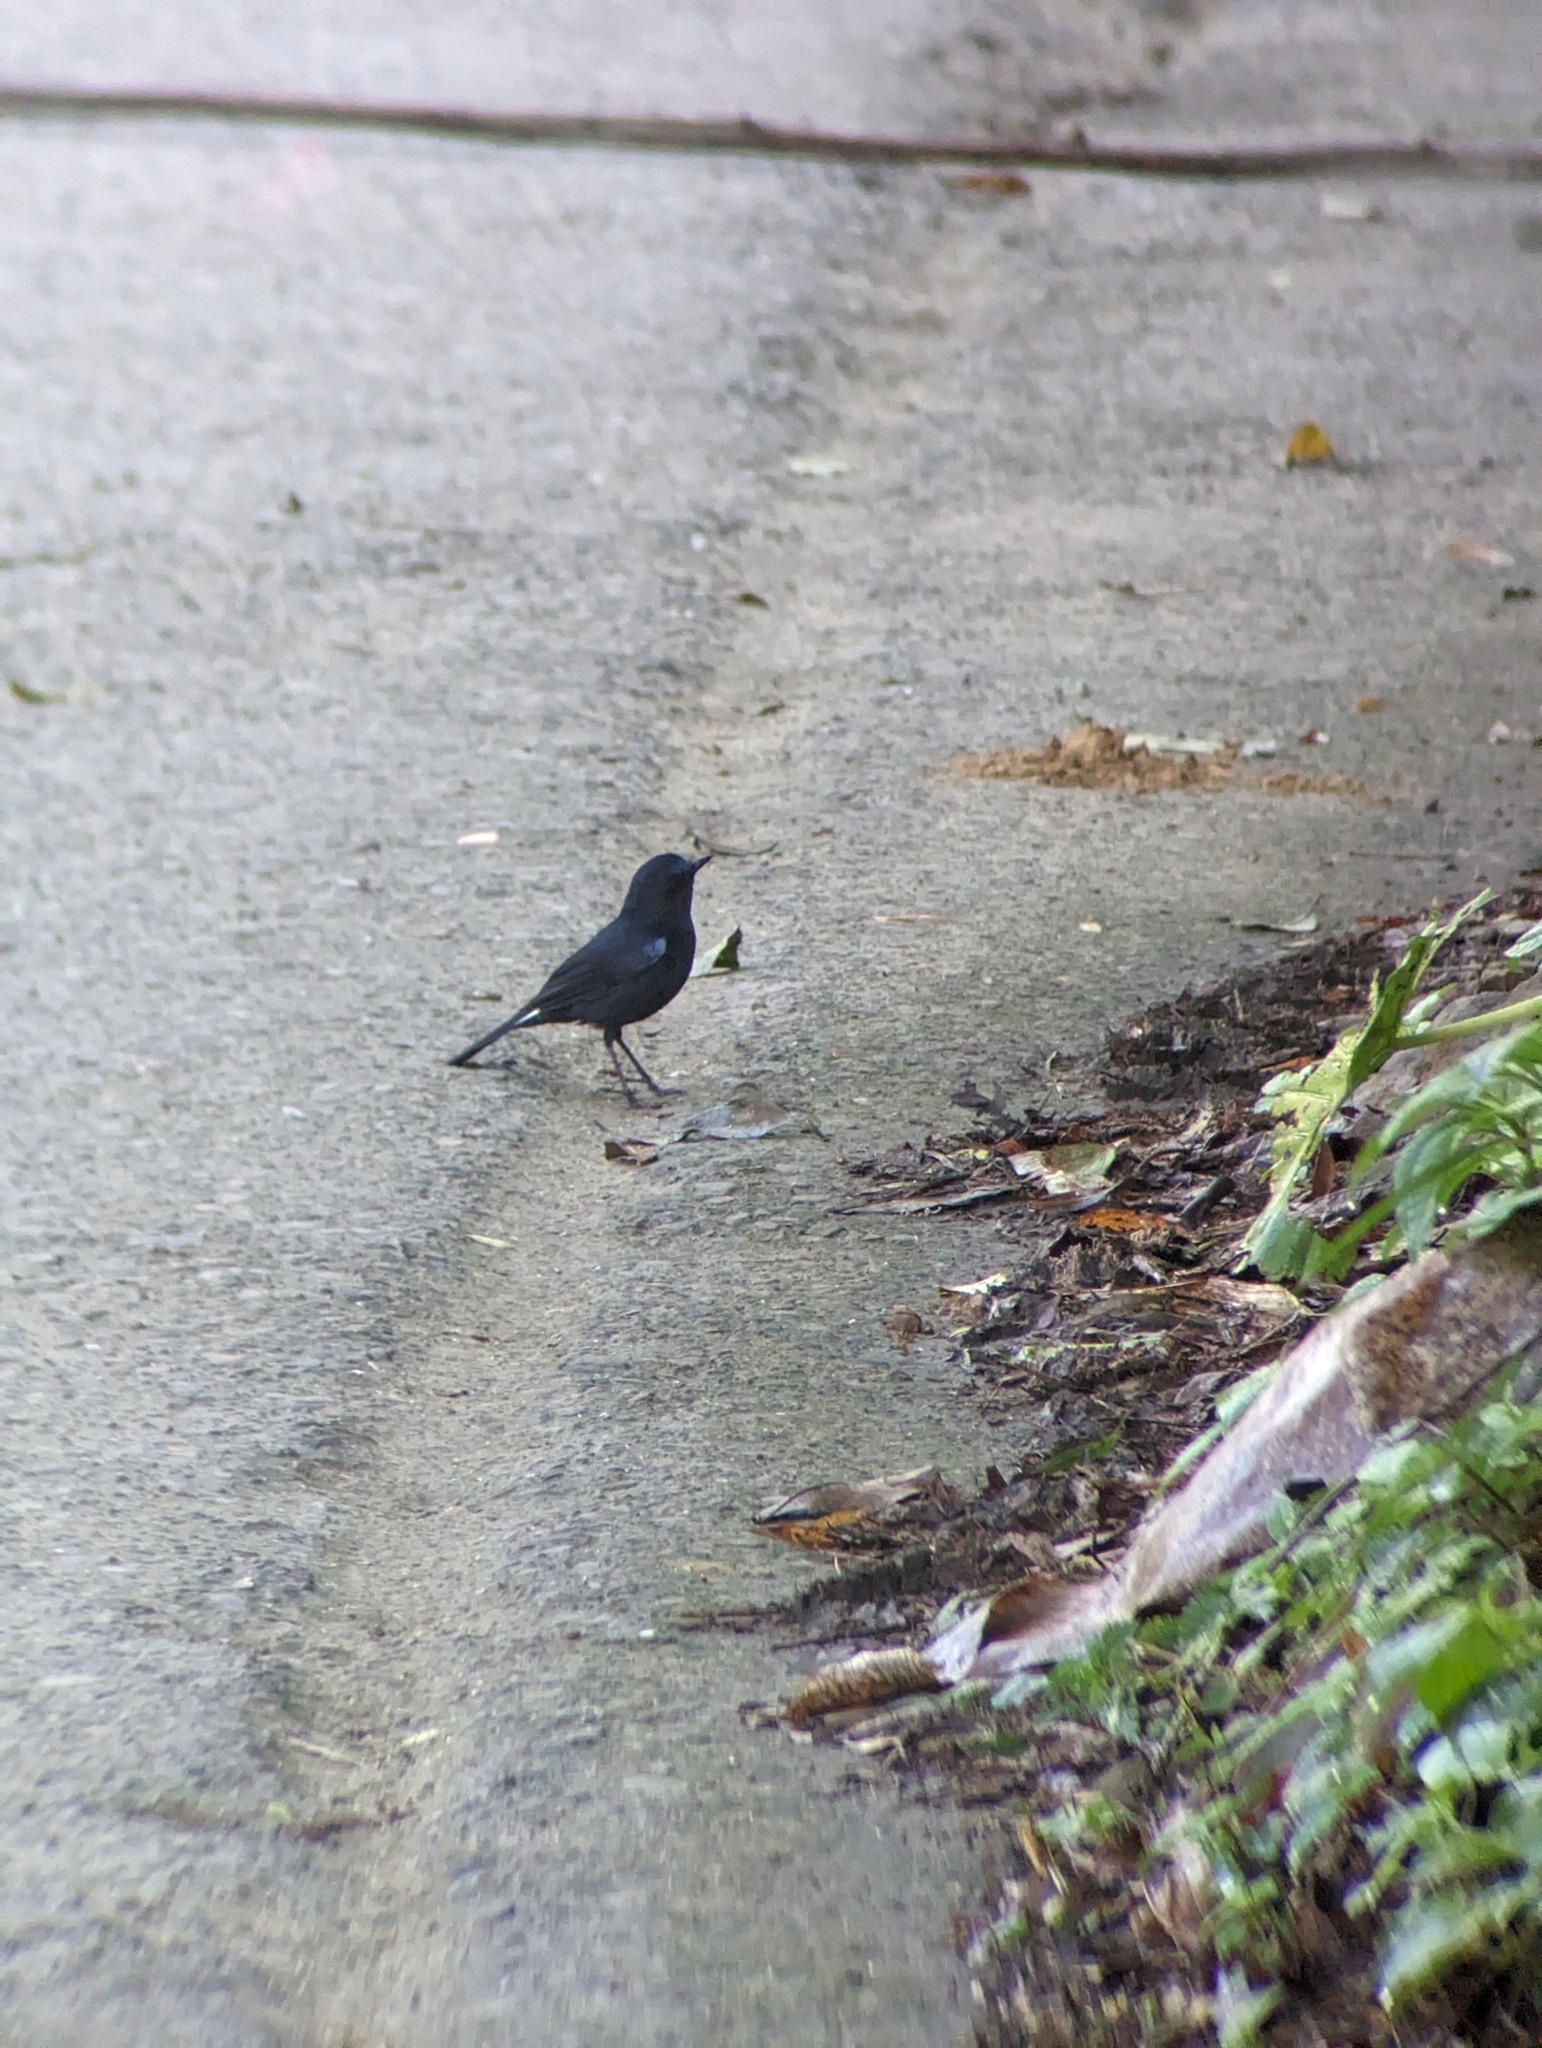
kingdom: Animalia
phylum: Chordata
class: Aves
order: Passeriformes
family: Muscicapidae
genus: Myiomela
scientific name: Myiomela leucura
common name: White-tailed robin
